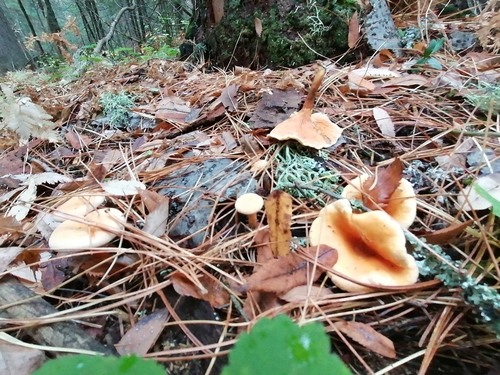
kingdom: Fungi
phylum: Basidiomycota
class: Agaricomycetes
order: Boletales
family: Hygrophoropsidaceae
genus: Hygrophoropsis
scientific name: Hygrophoropsis aurantiaca
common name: False chanterelle
